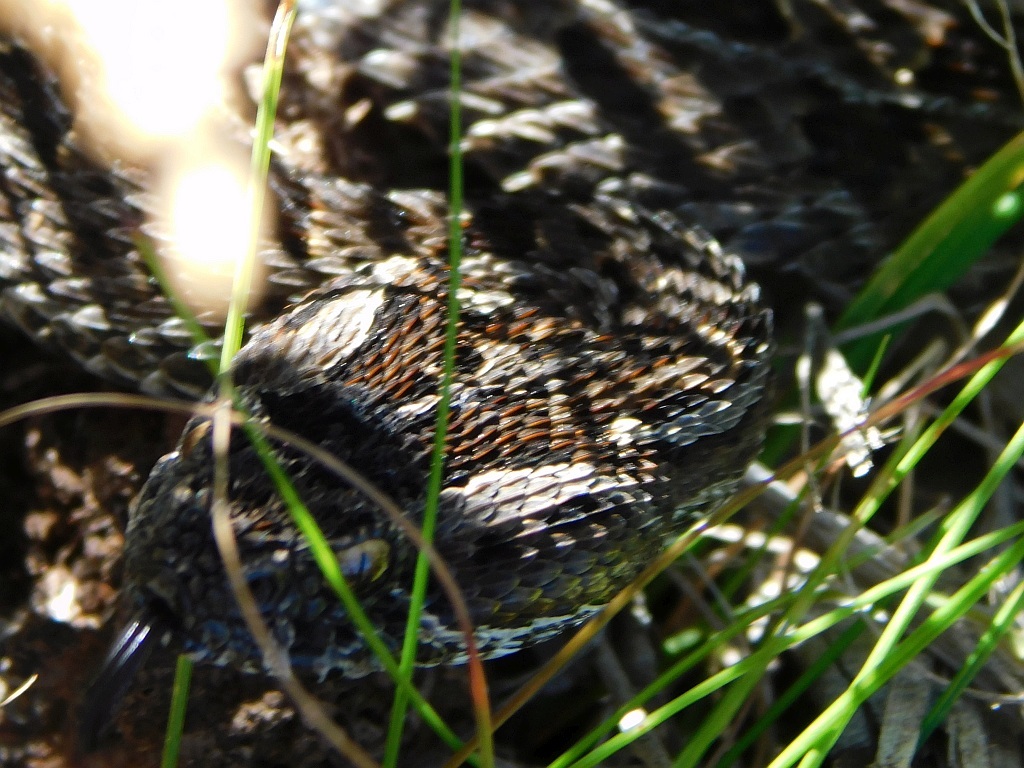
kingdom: Animalia
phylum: Chordata
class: Squamata
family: Viperidae
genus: Bitis
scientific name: Bitis atropos
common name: Mountain adder
